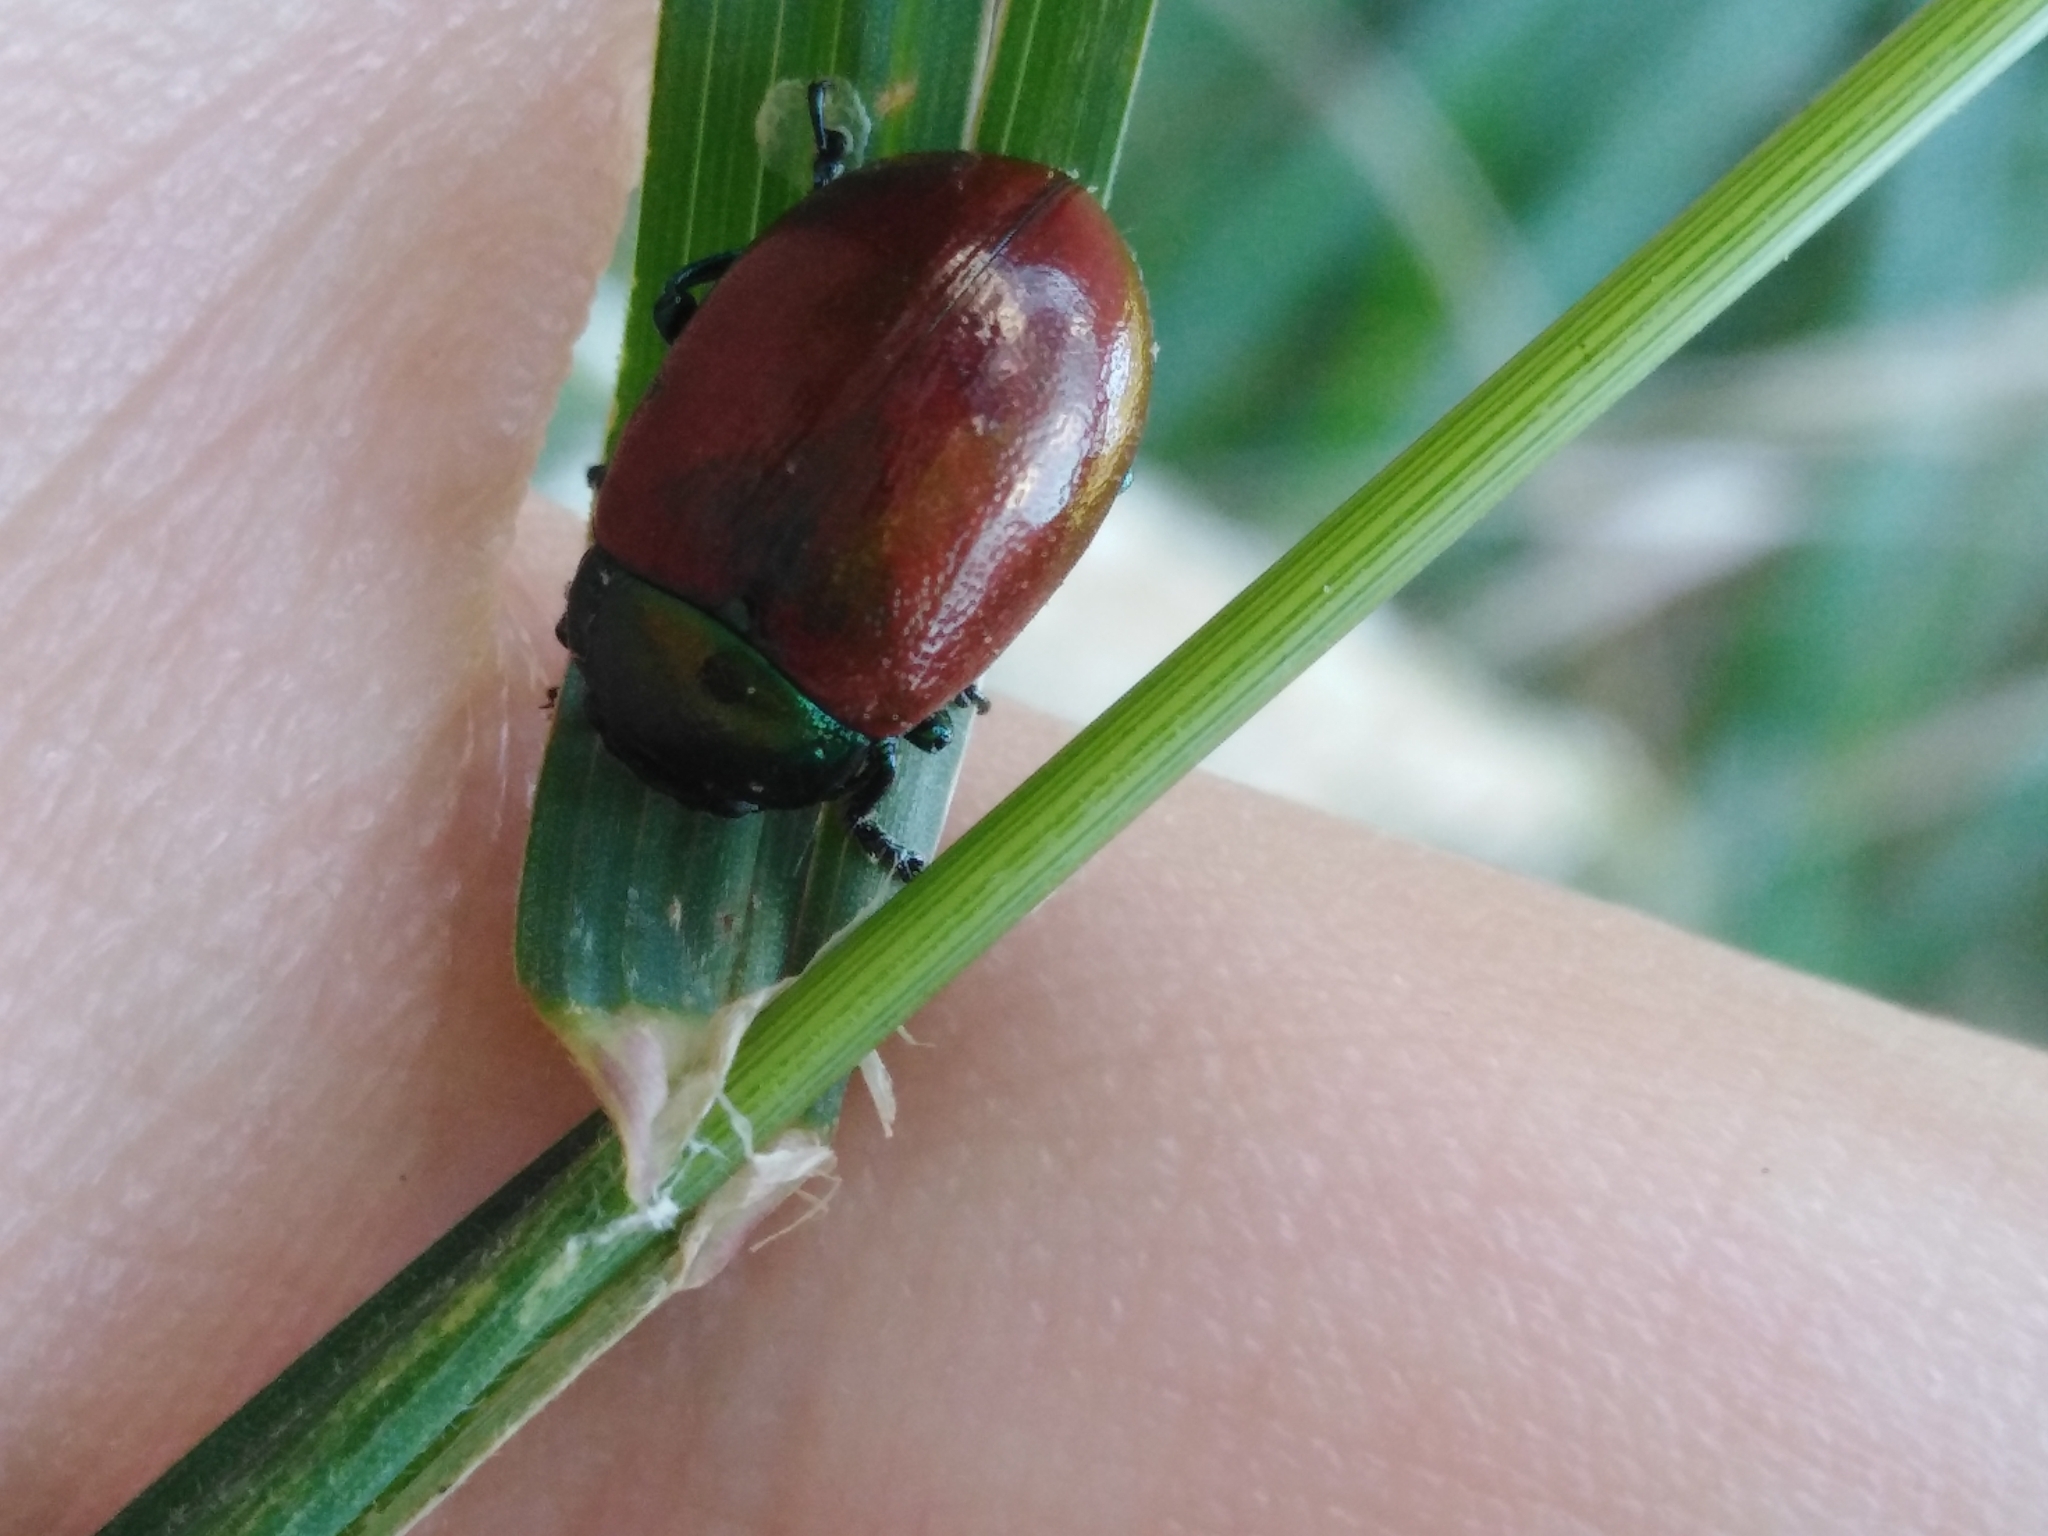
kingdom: Animalia
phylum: Arthropoda
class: Insecta
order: Coleoptera
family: Chrysomelidae
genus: Chrysomela
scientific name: Chrysomela polita
